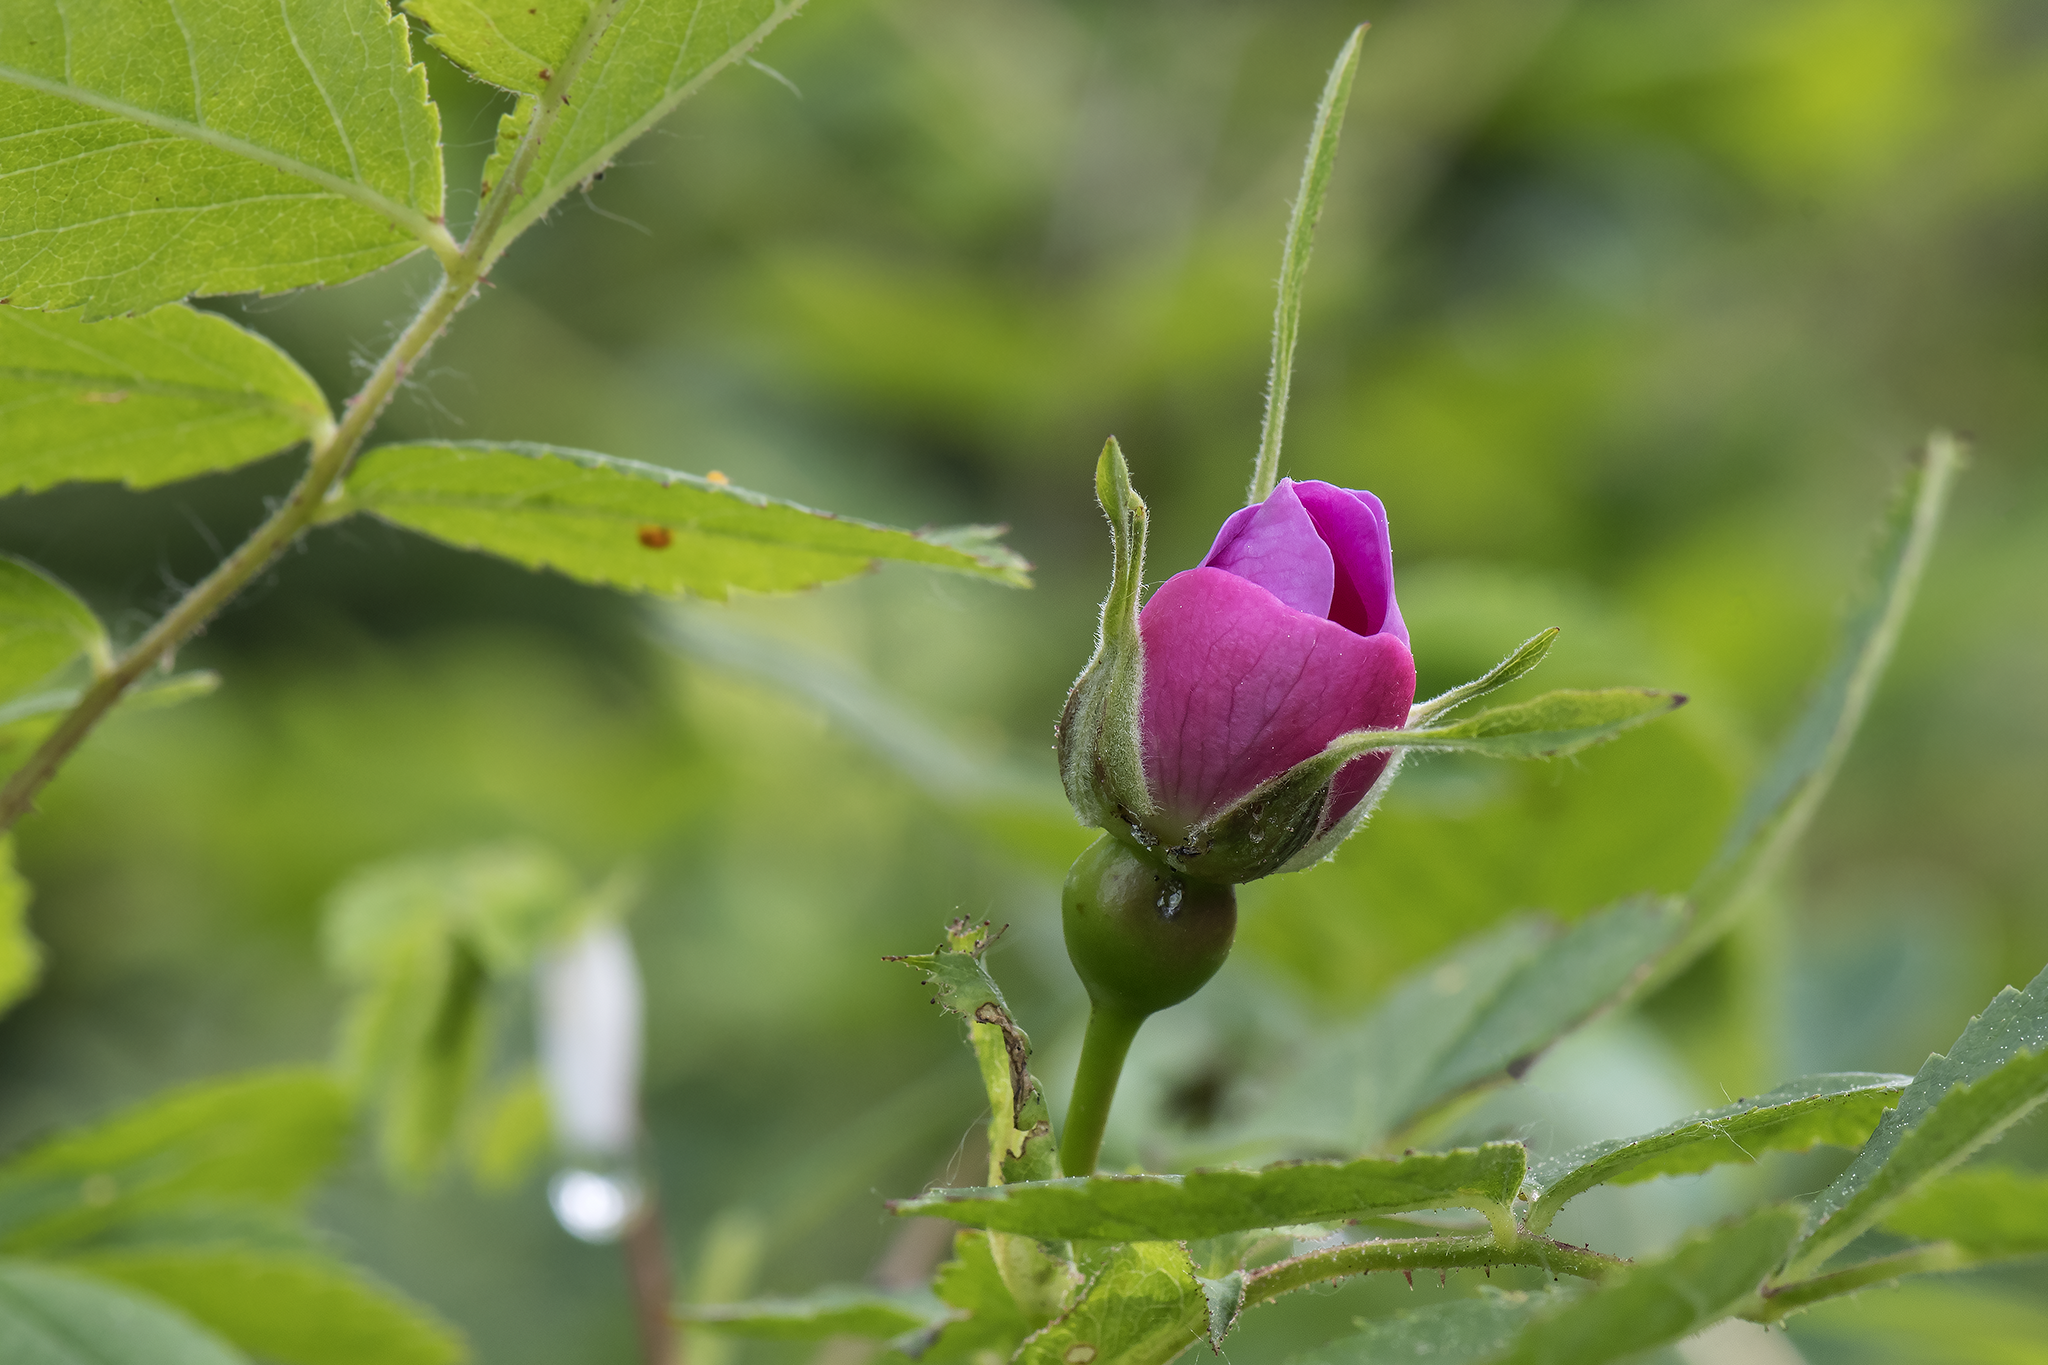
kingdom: Plantae
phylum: Tracheophyta
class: Magnoliopsida
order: Rosales
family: Rosaceae
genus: Rosa
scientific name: Rosa nutkana
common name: Nootka rose
